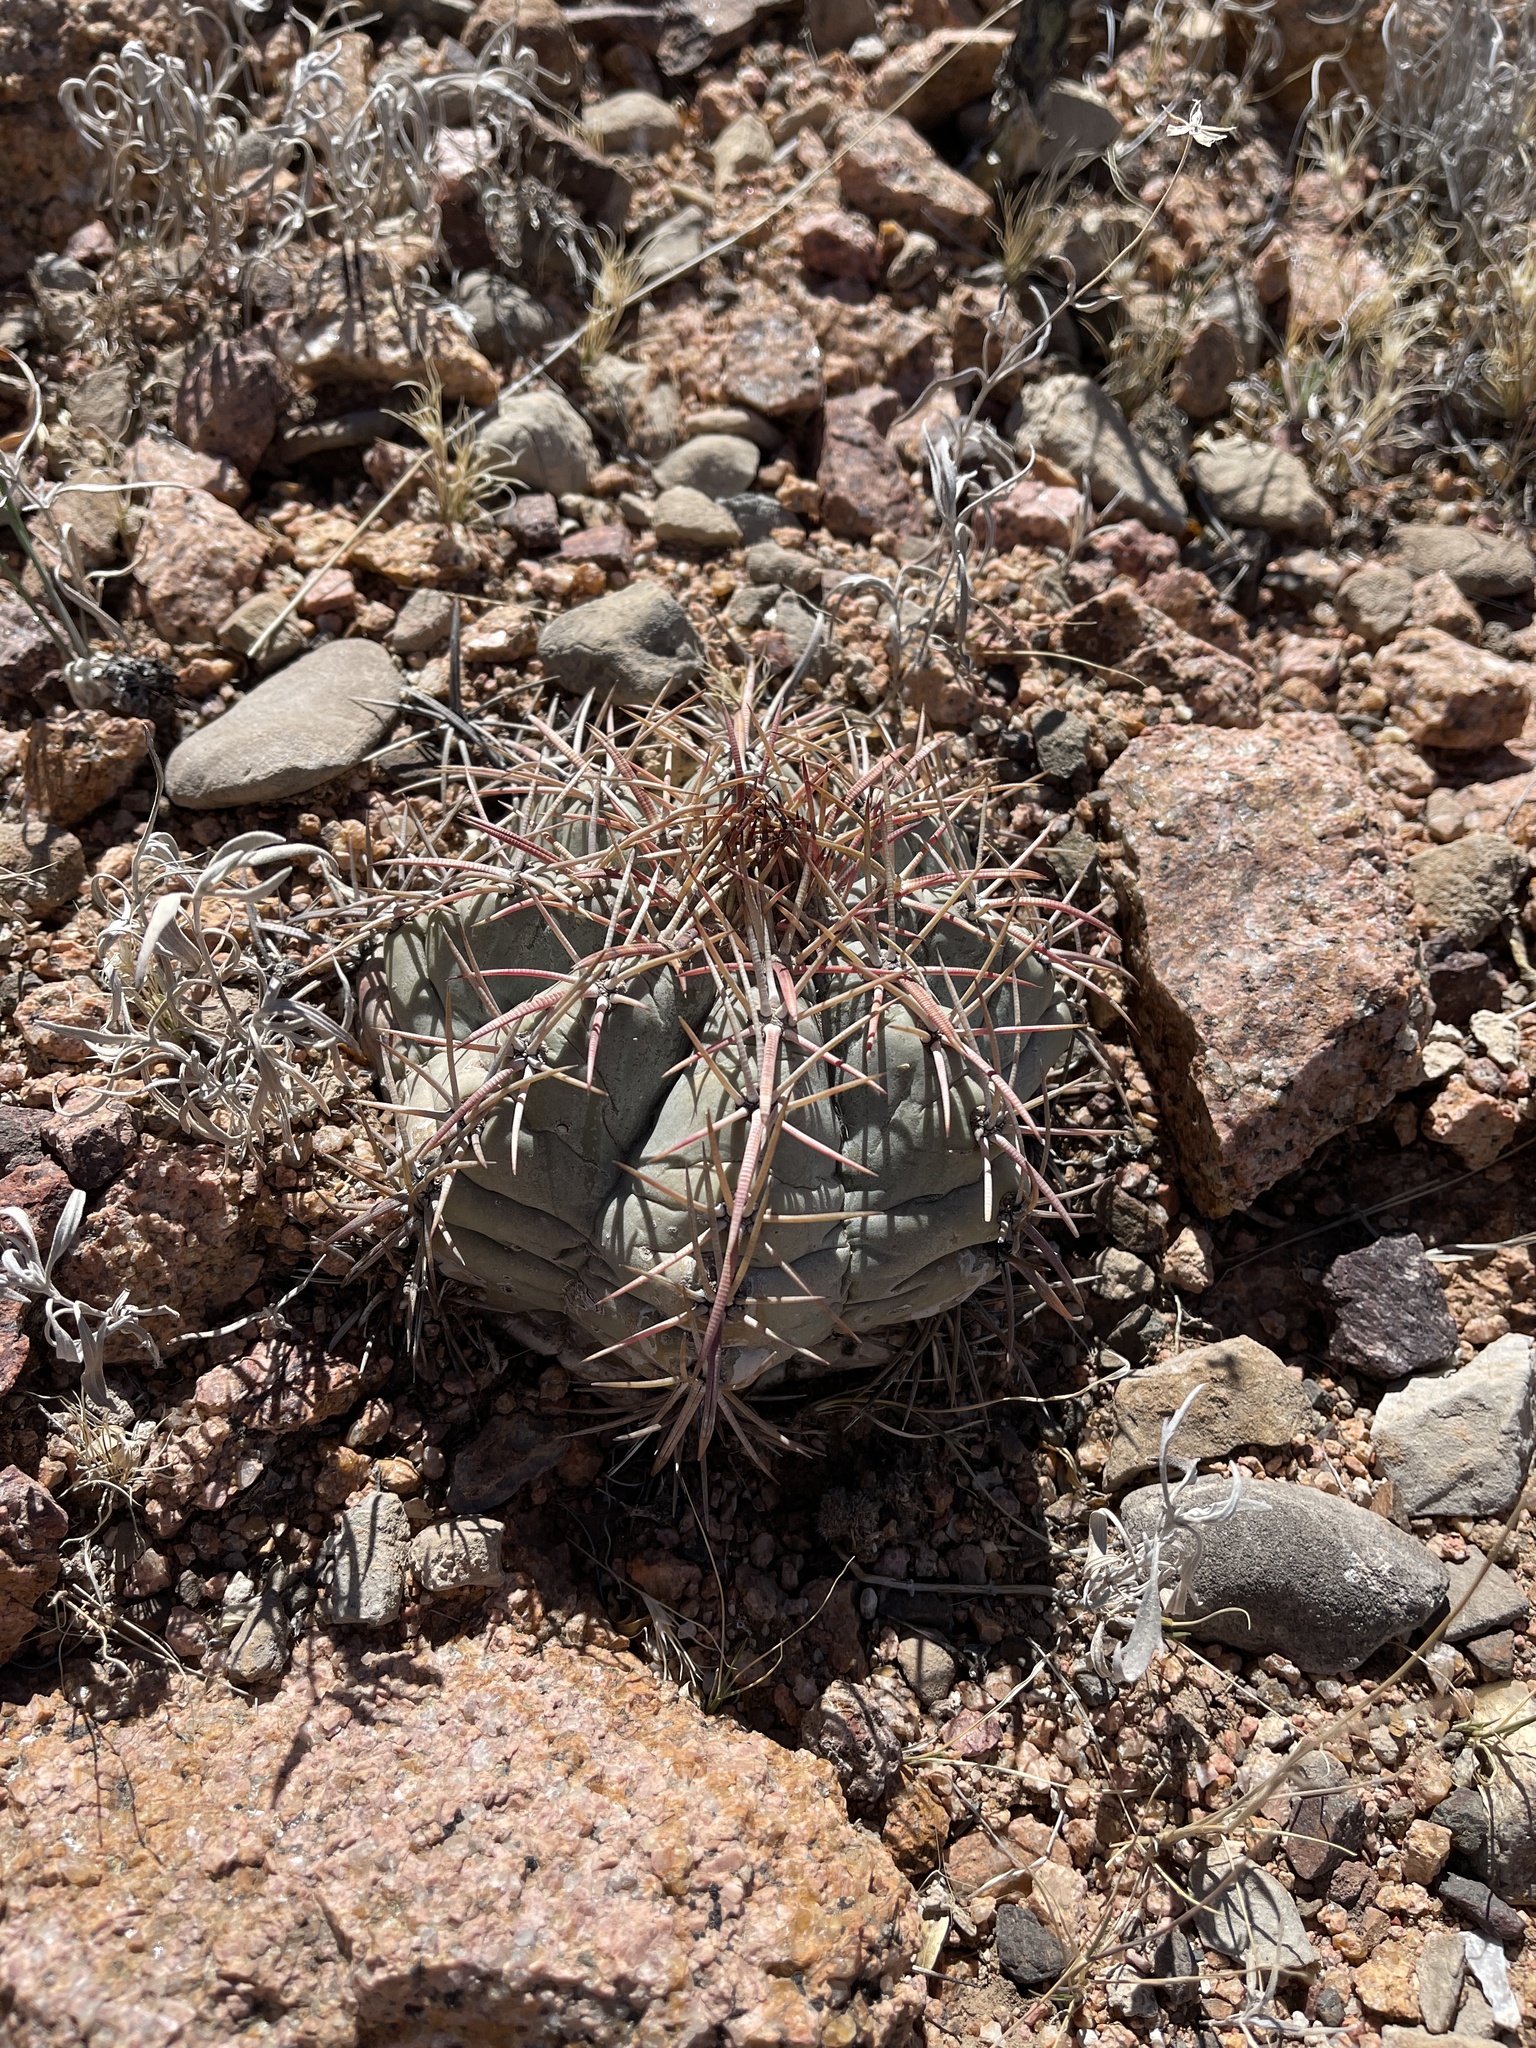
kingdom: Plantae
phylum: Tracheophyta
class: Magnoliopsida
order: Caryophyllales
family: Cactaceae
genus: Echinocactus
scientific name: Echinocactus horizonthalonius
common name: Devilshead
